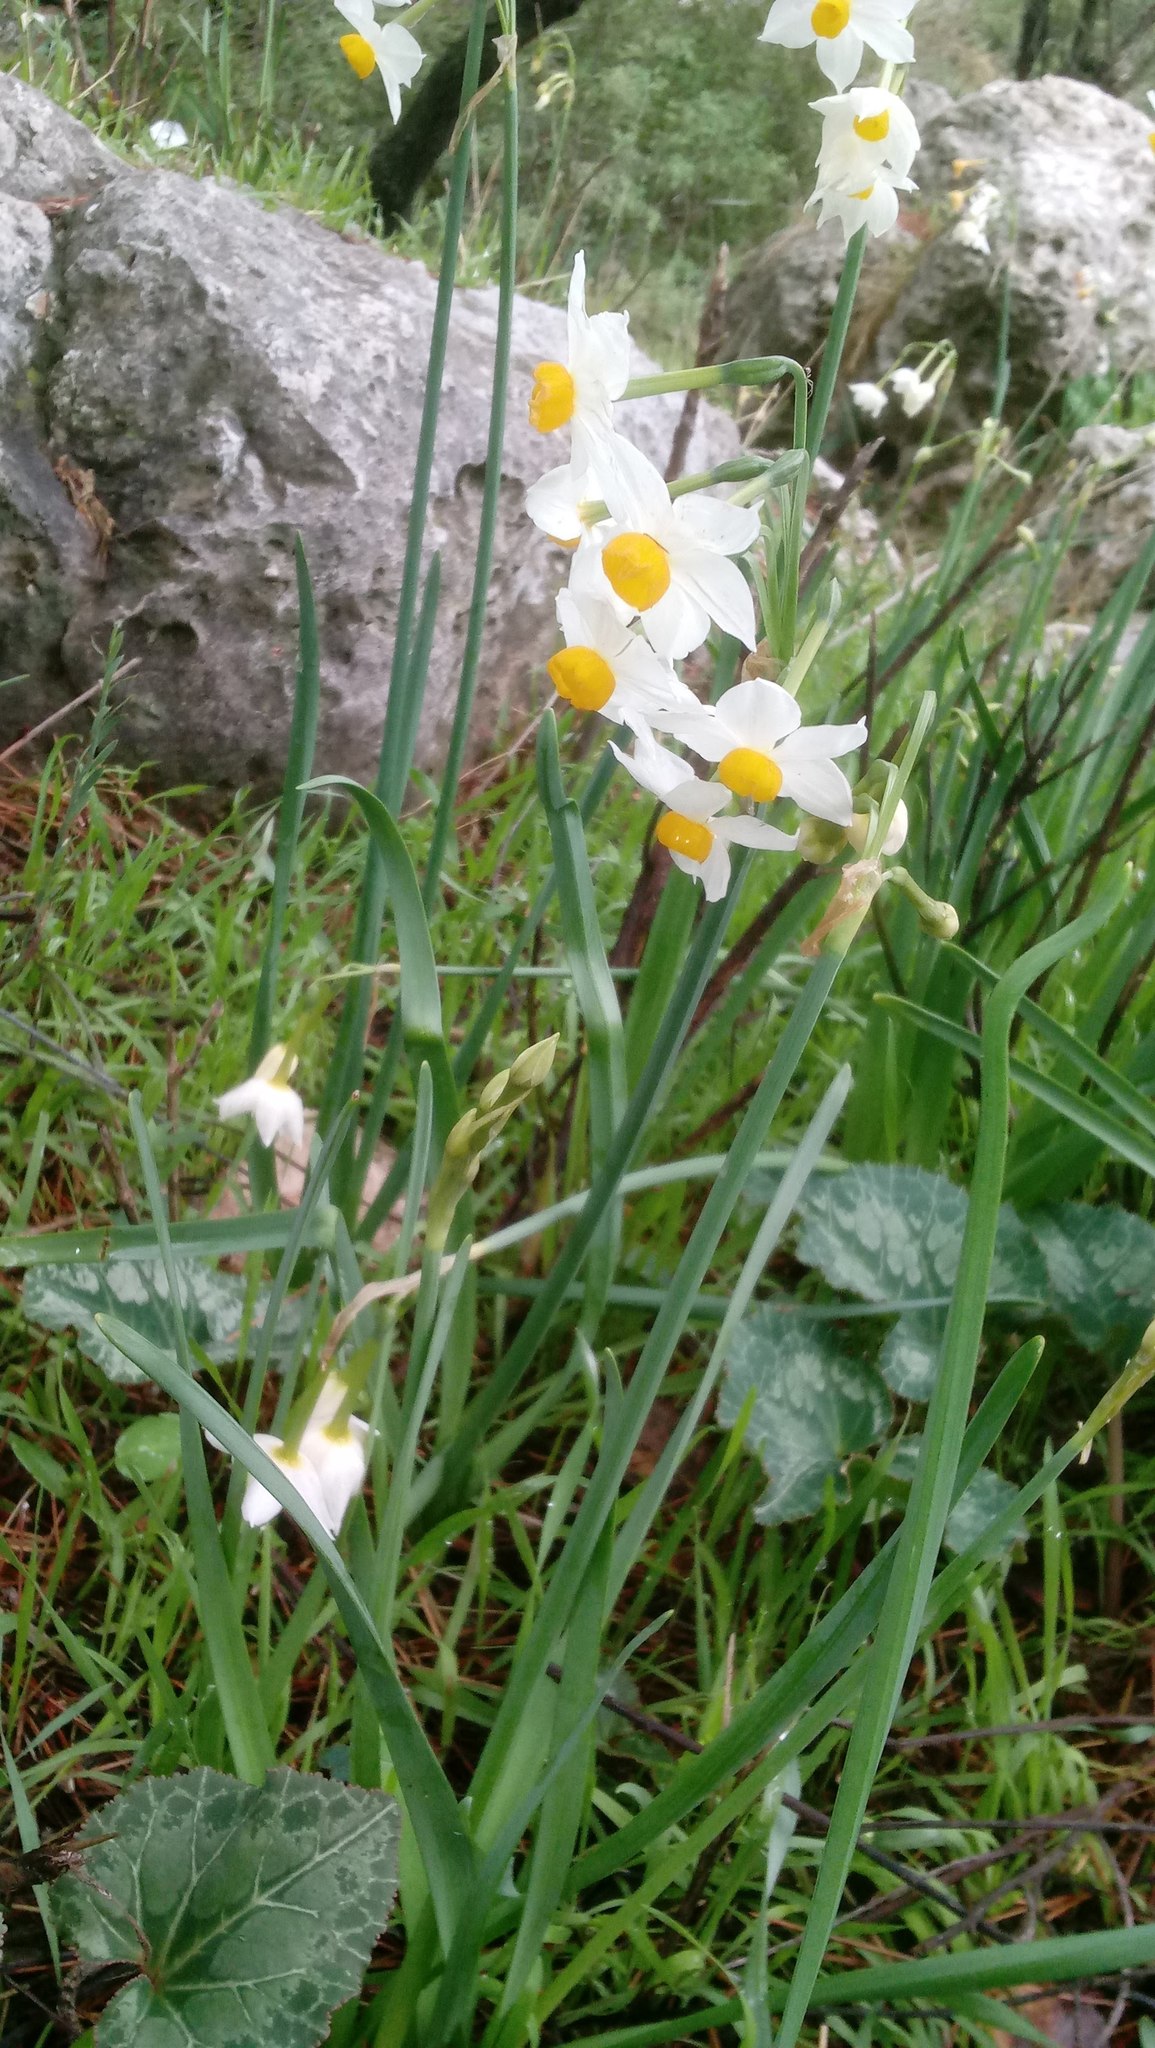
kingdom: Plantae
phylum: Tracheophyta
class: Liliopsida
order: Asparagales
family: Amaryllidaceae
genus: Narcissus
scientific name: Narcissus tazetta
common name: Bunch-flowered daffodil
